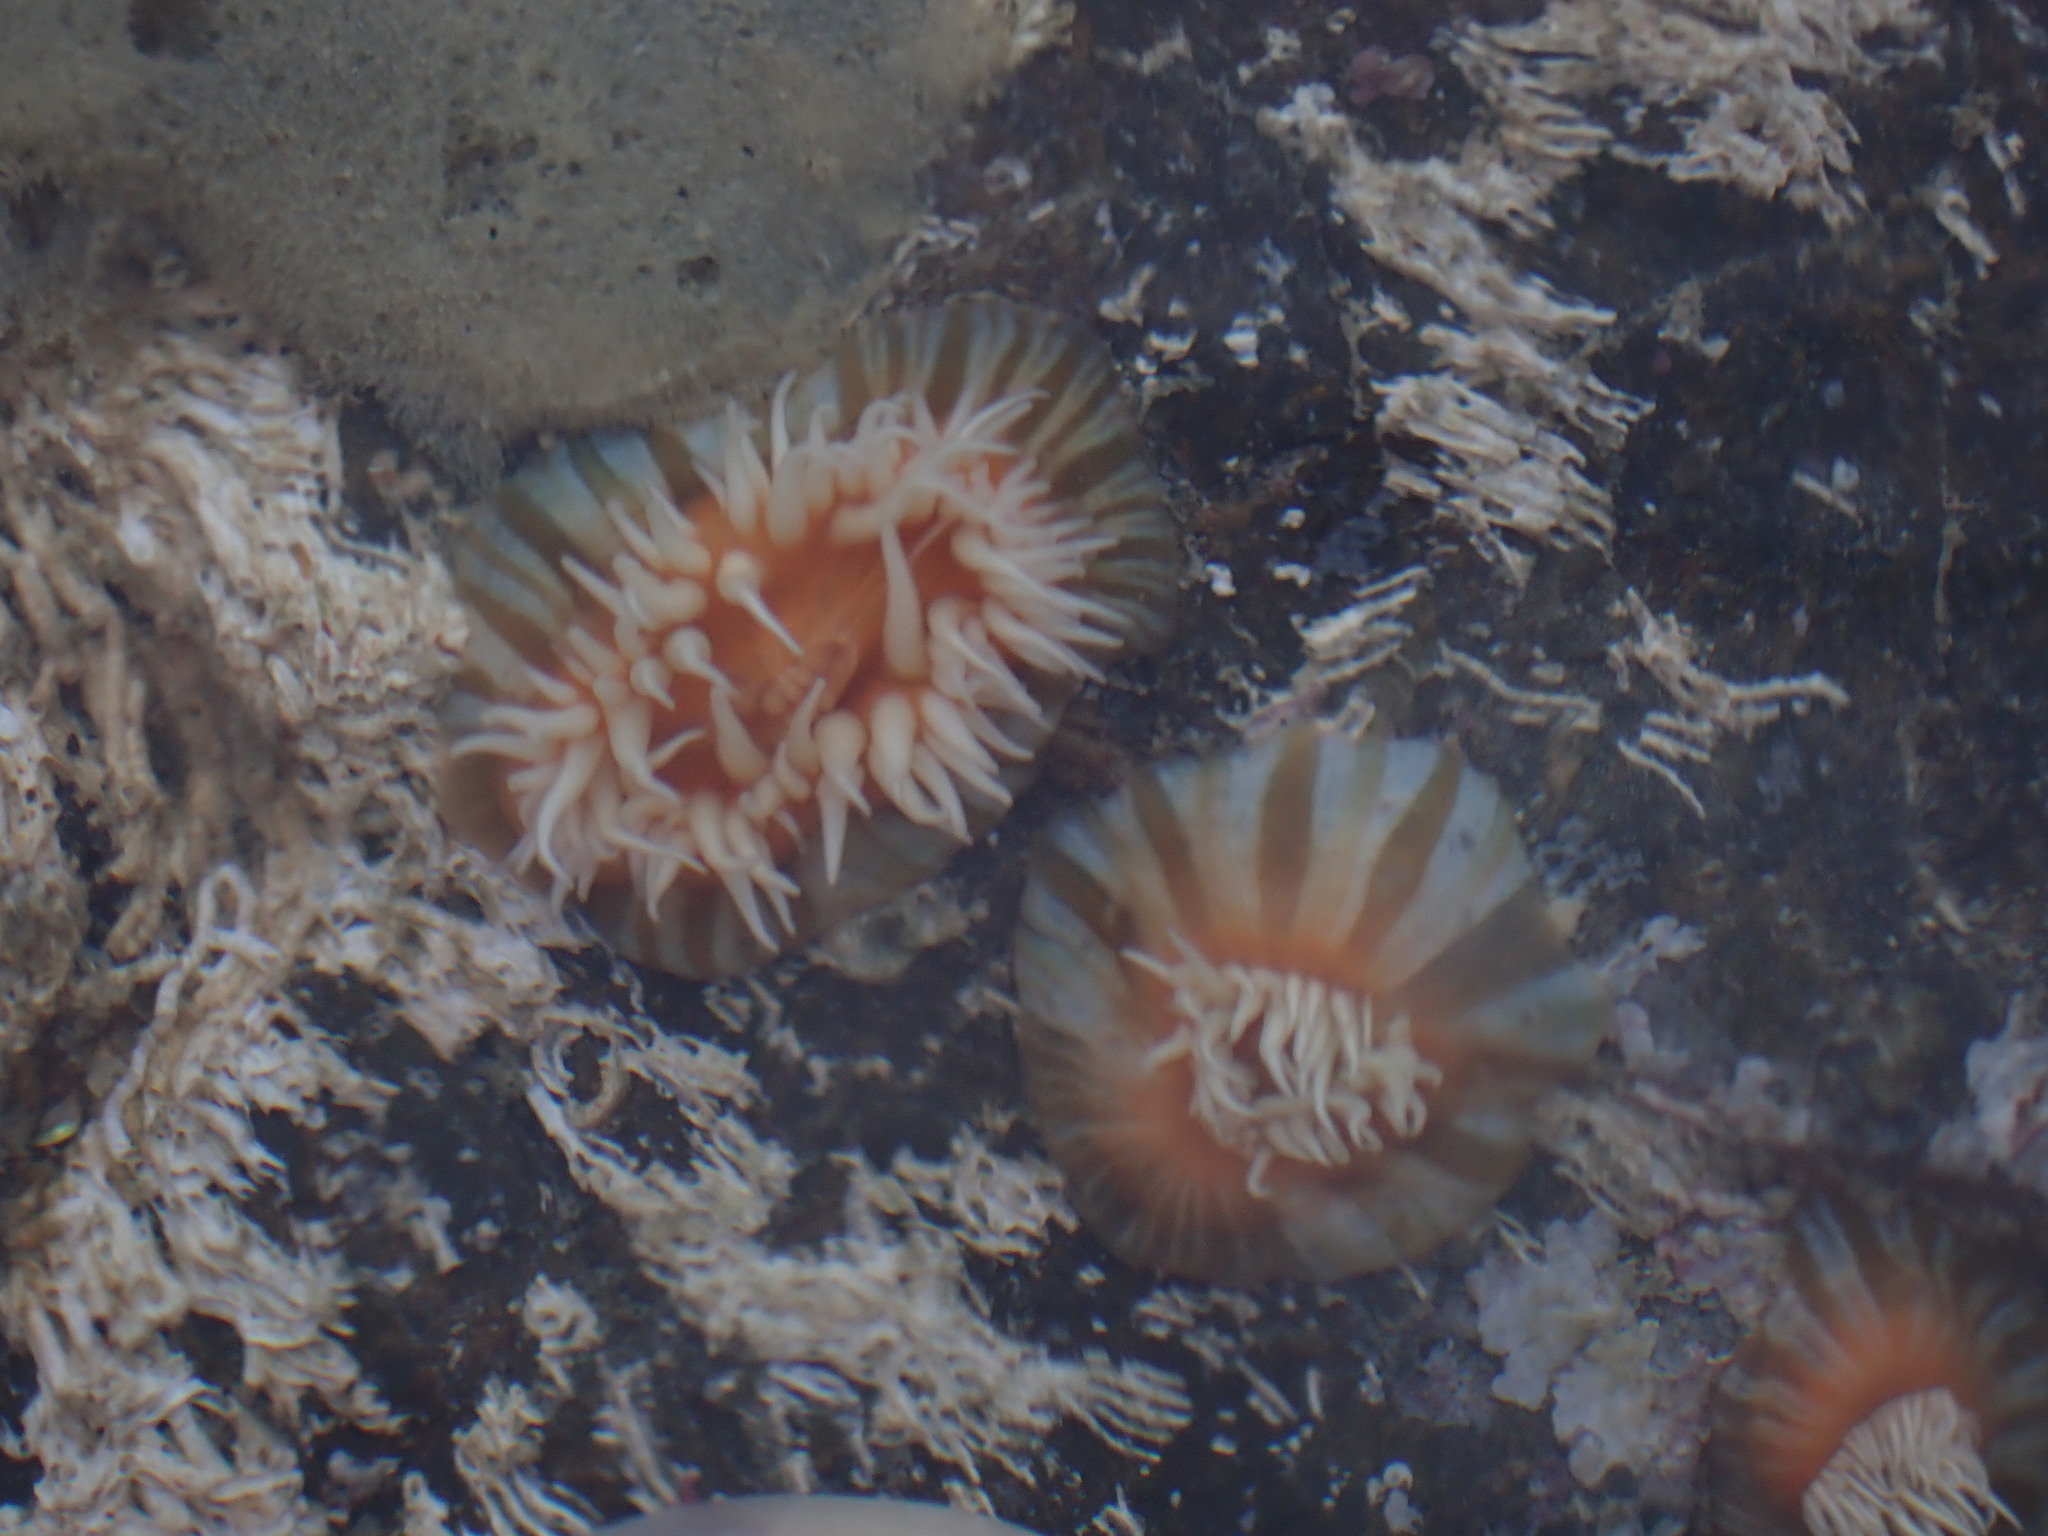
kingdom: Animalia
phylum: Cnidaria
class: Anthozoa
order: Actiniaria
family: Sagartiidae
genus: Anthothoe
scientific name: Anthothoe albocincta
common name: Orange striped anemone
